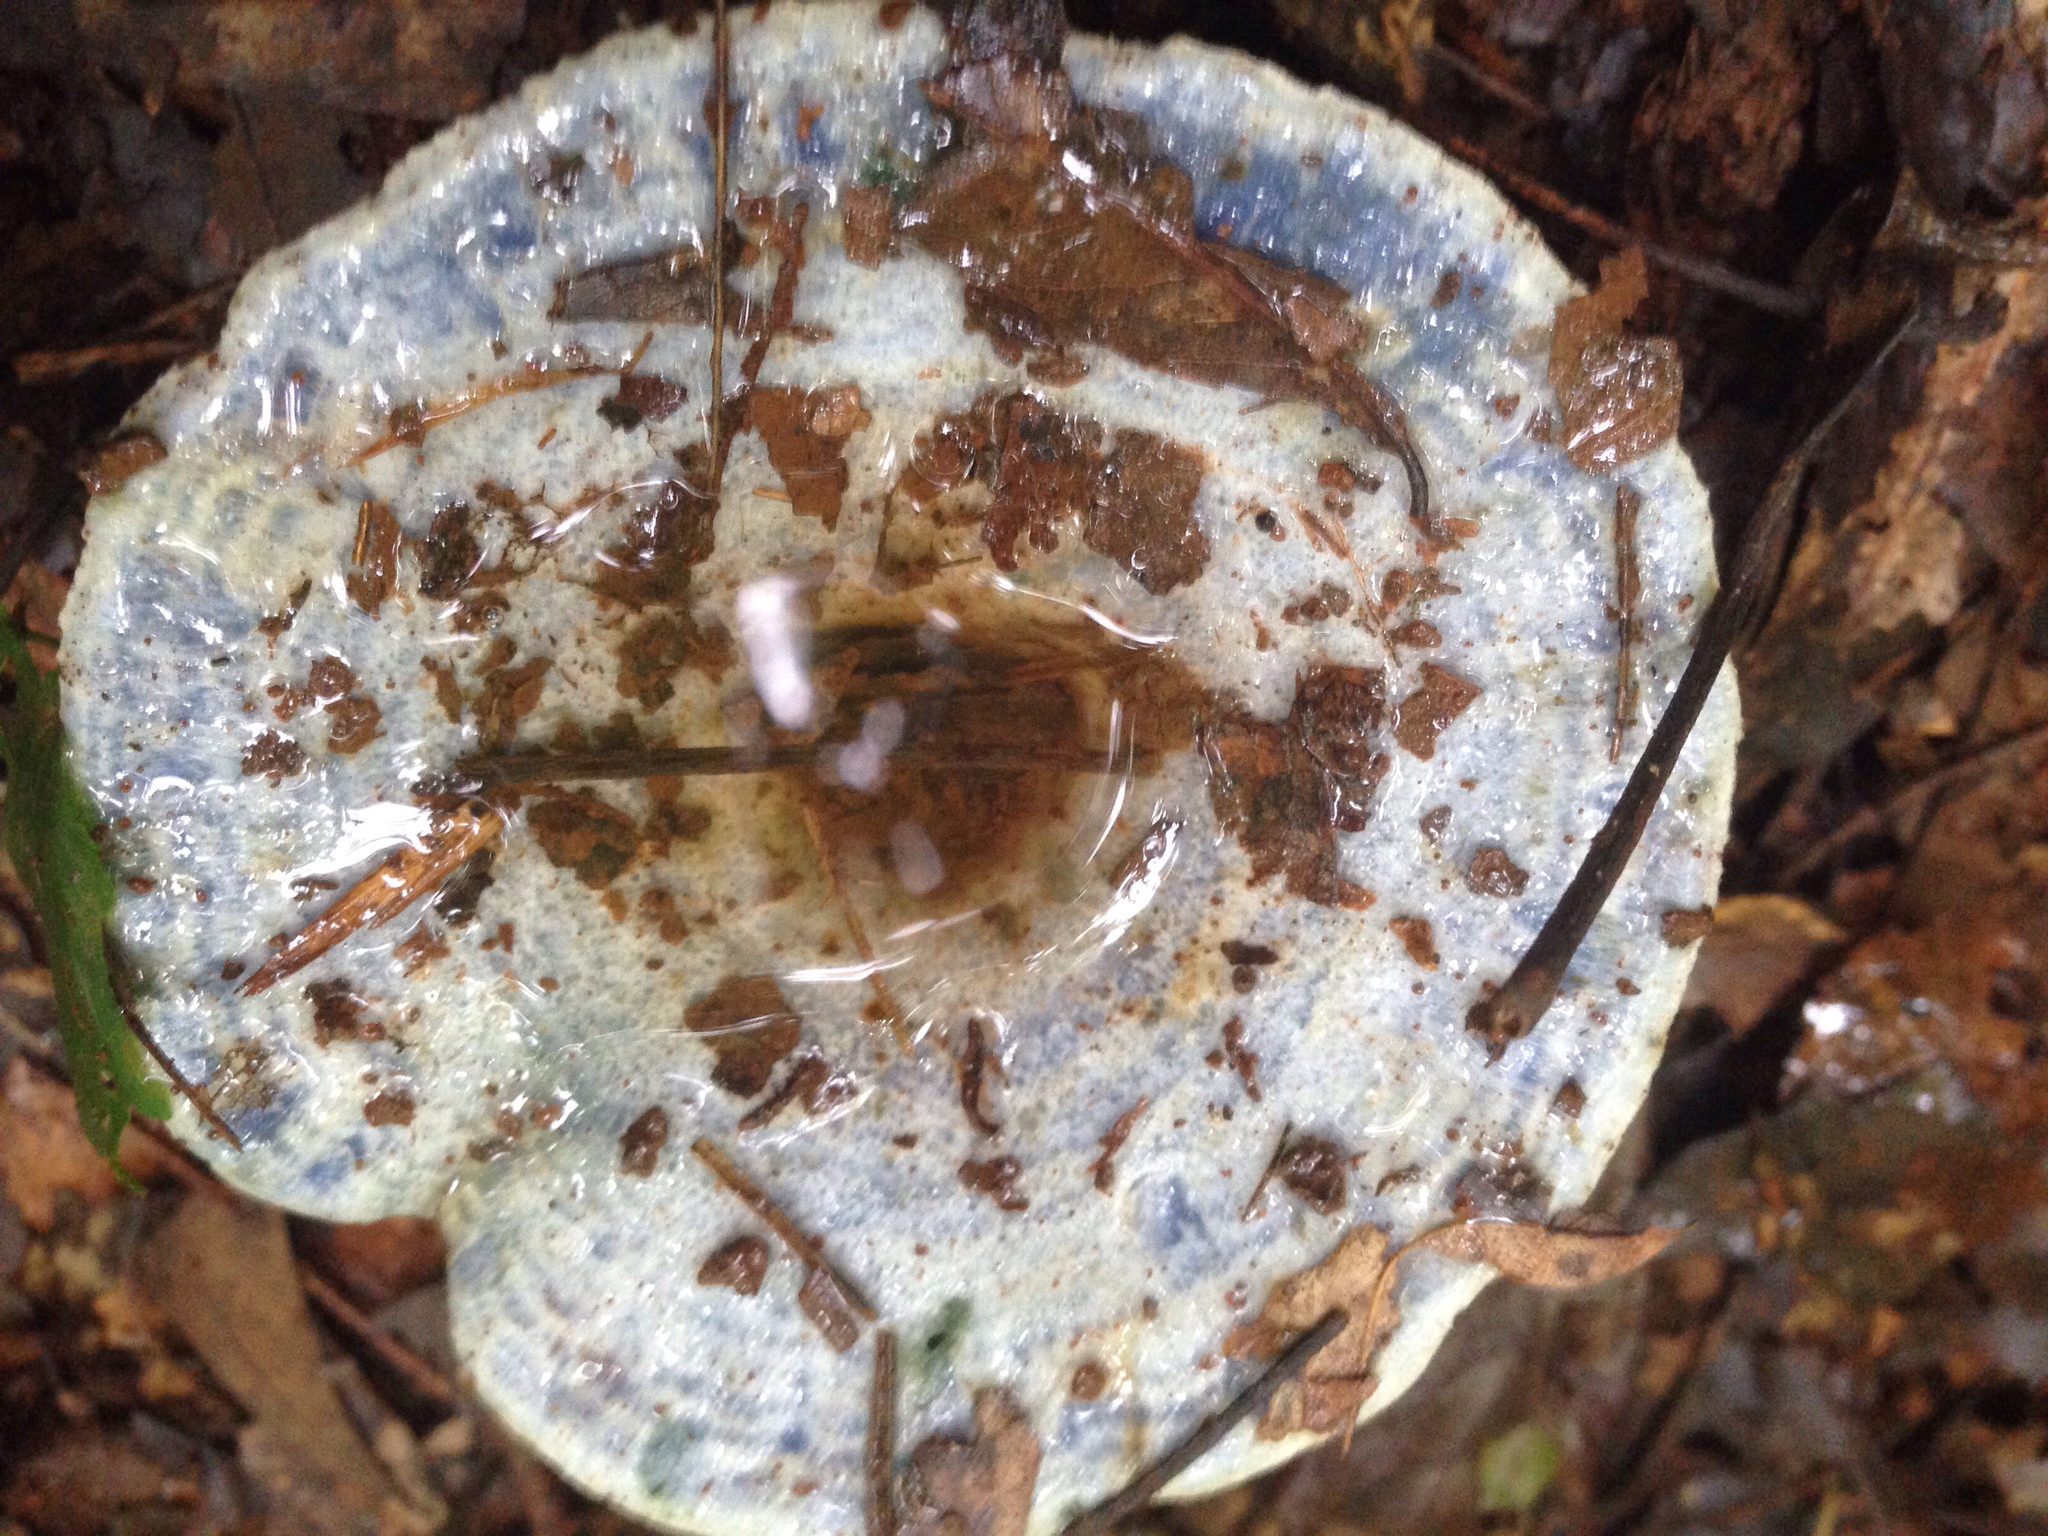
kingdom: Fungi
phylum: Basidiomycota
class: Agaricomycetes
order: Russulales
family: Russulaceae
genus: Lactarius
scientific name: Lactarius indigo
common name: Indigo milk cap
